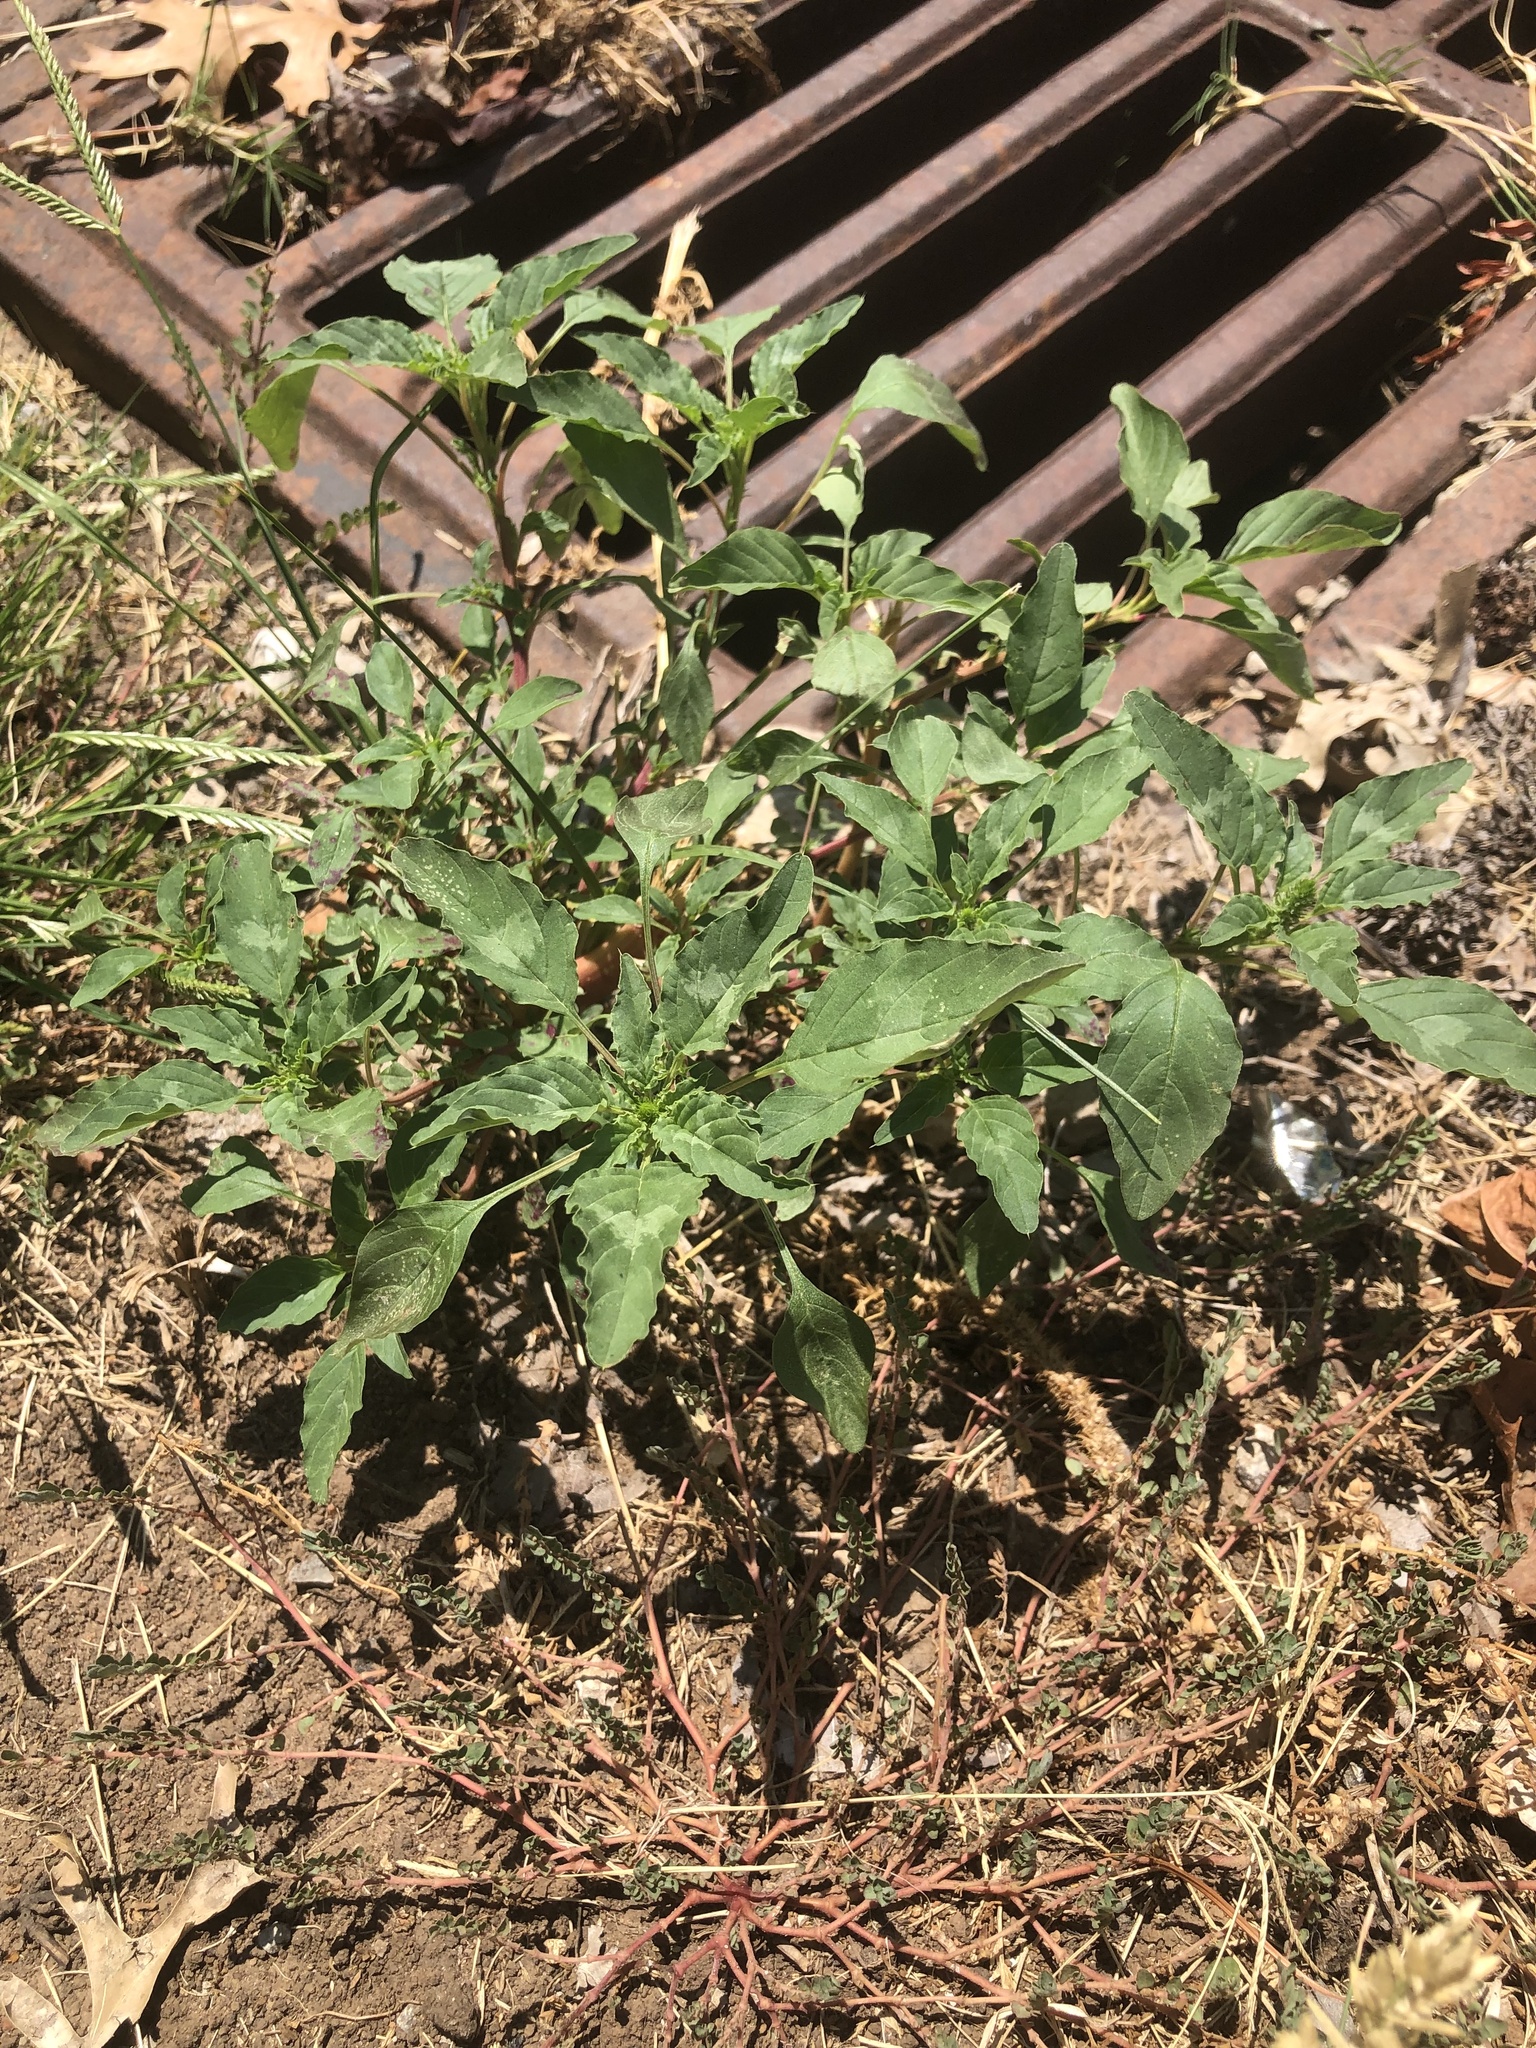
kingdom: Plantae
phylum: Tracheophyta
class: Magnoliopsida
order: Caryophyllales
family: Amaranthaceae
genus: Amaranthus
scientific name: Amaranthus palmeri
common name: Dioecious amaranth
